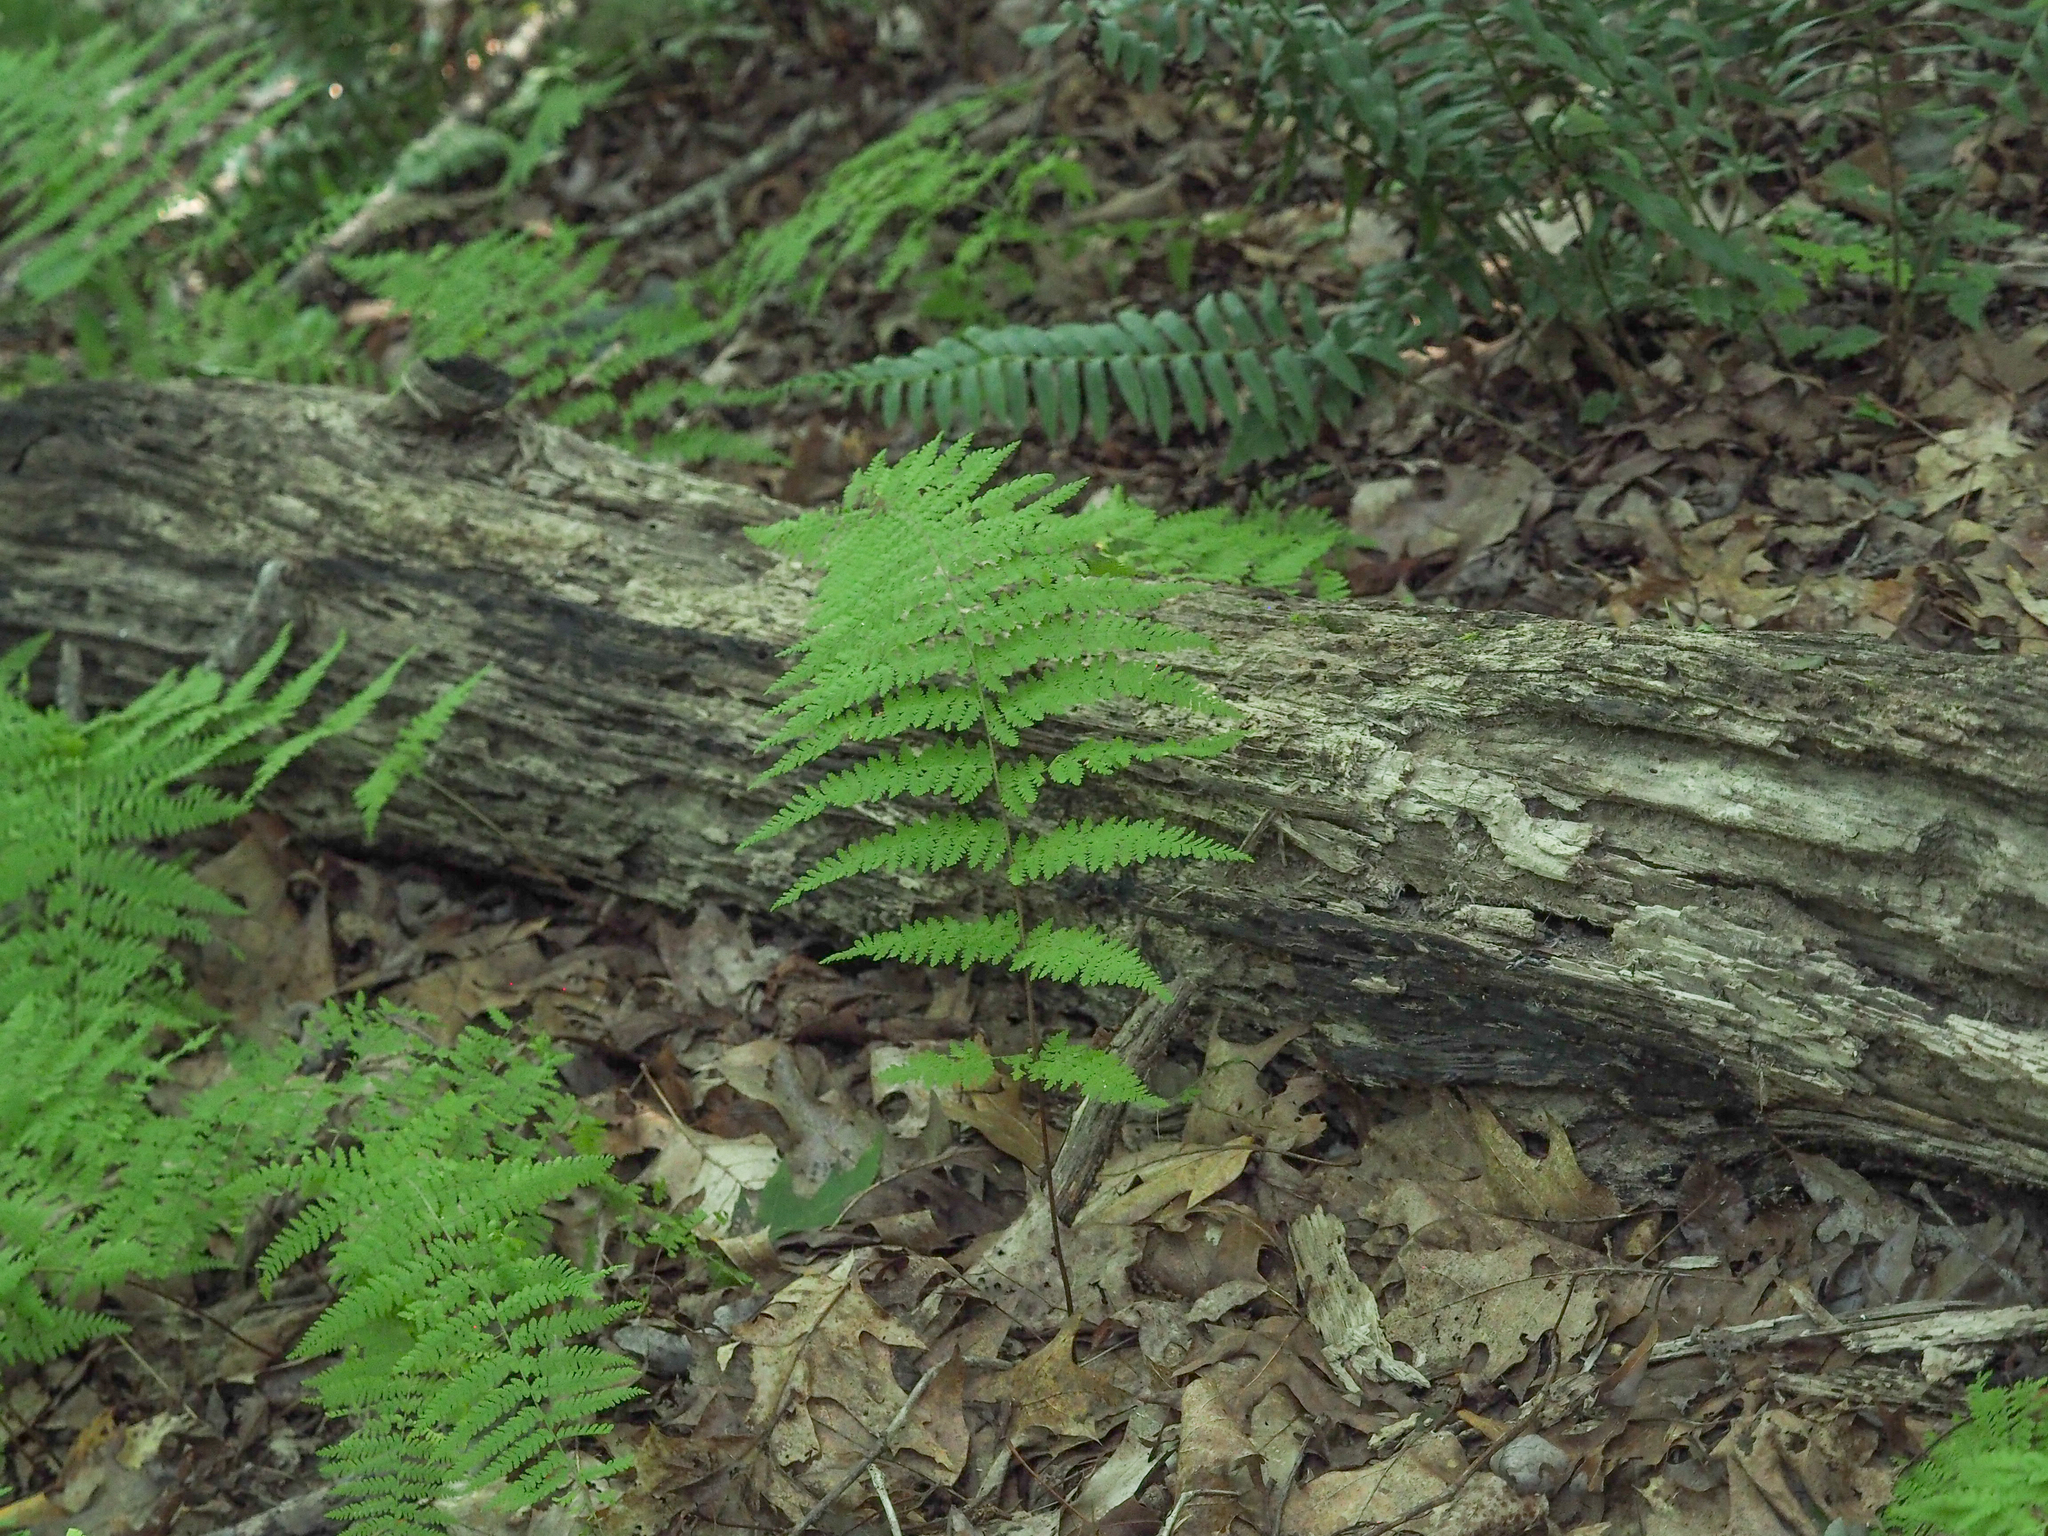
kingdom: Plantae
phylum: Tracheophyta
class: Polypodiopsida
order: Polypodiales
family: Athyriaceae
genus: Athyrium
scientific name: Athyrium asplenioides
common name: Southern lady fern
